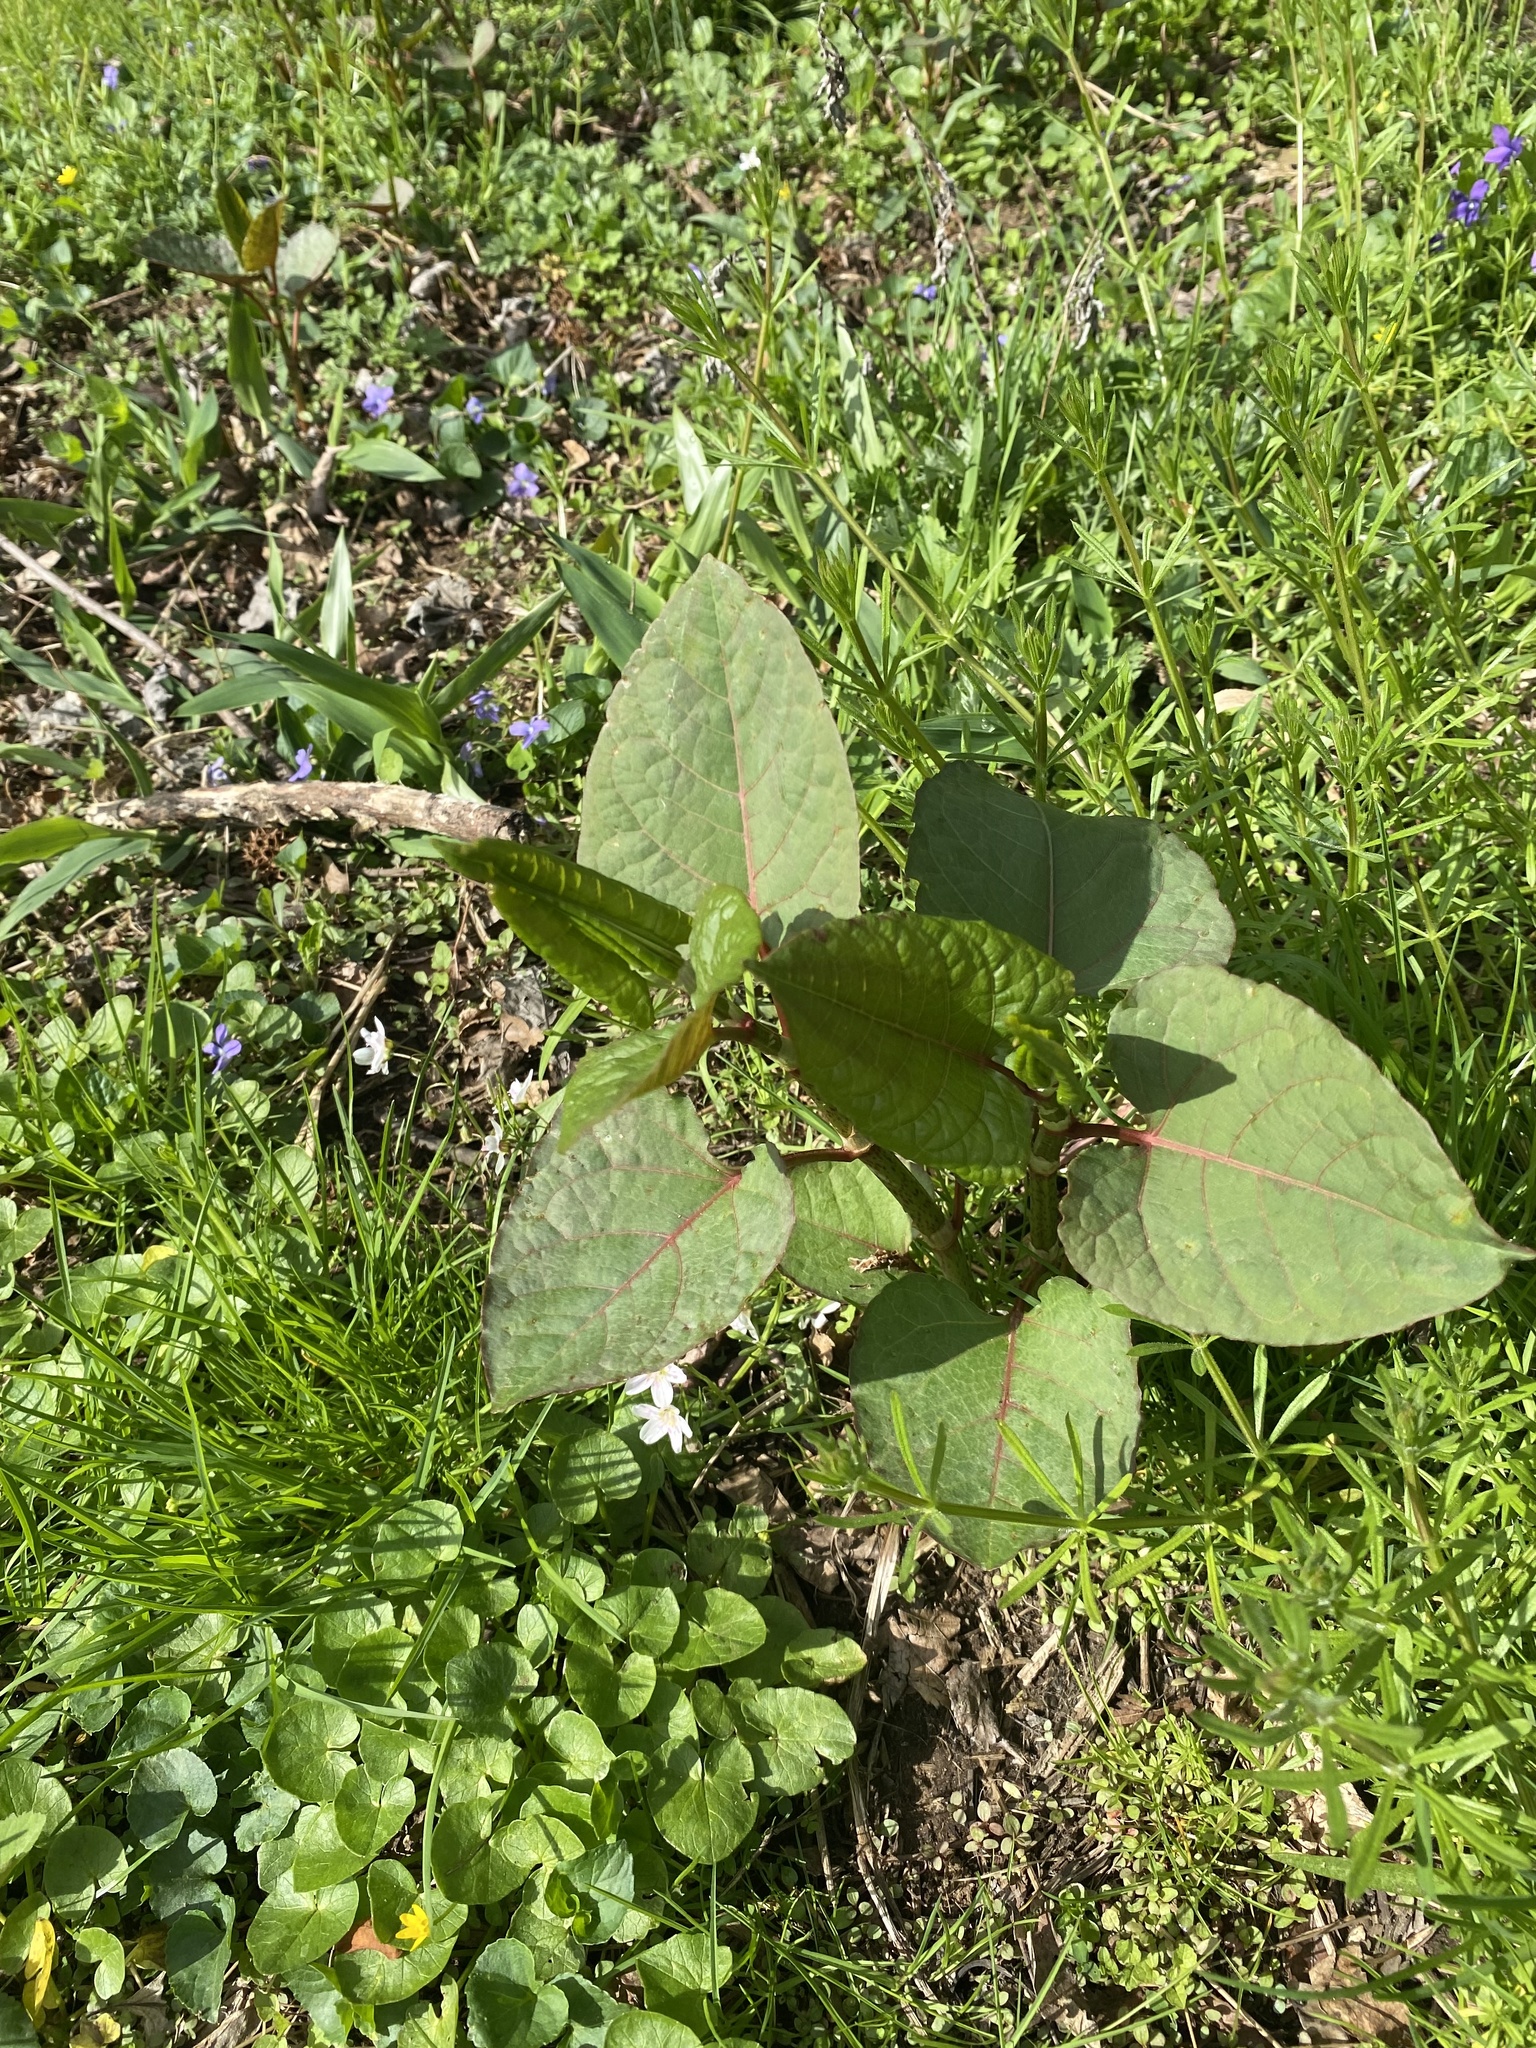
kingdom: Plantae
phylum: Tracheophyta
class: Magnoliopsida
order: Caryophyllales
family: Polygonaceae
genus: Reynoutria
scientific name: Reynoutria japonica
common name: Japanese knotweed
